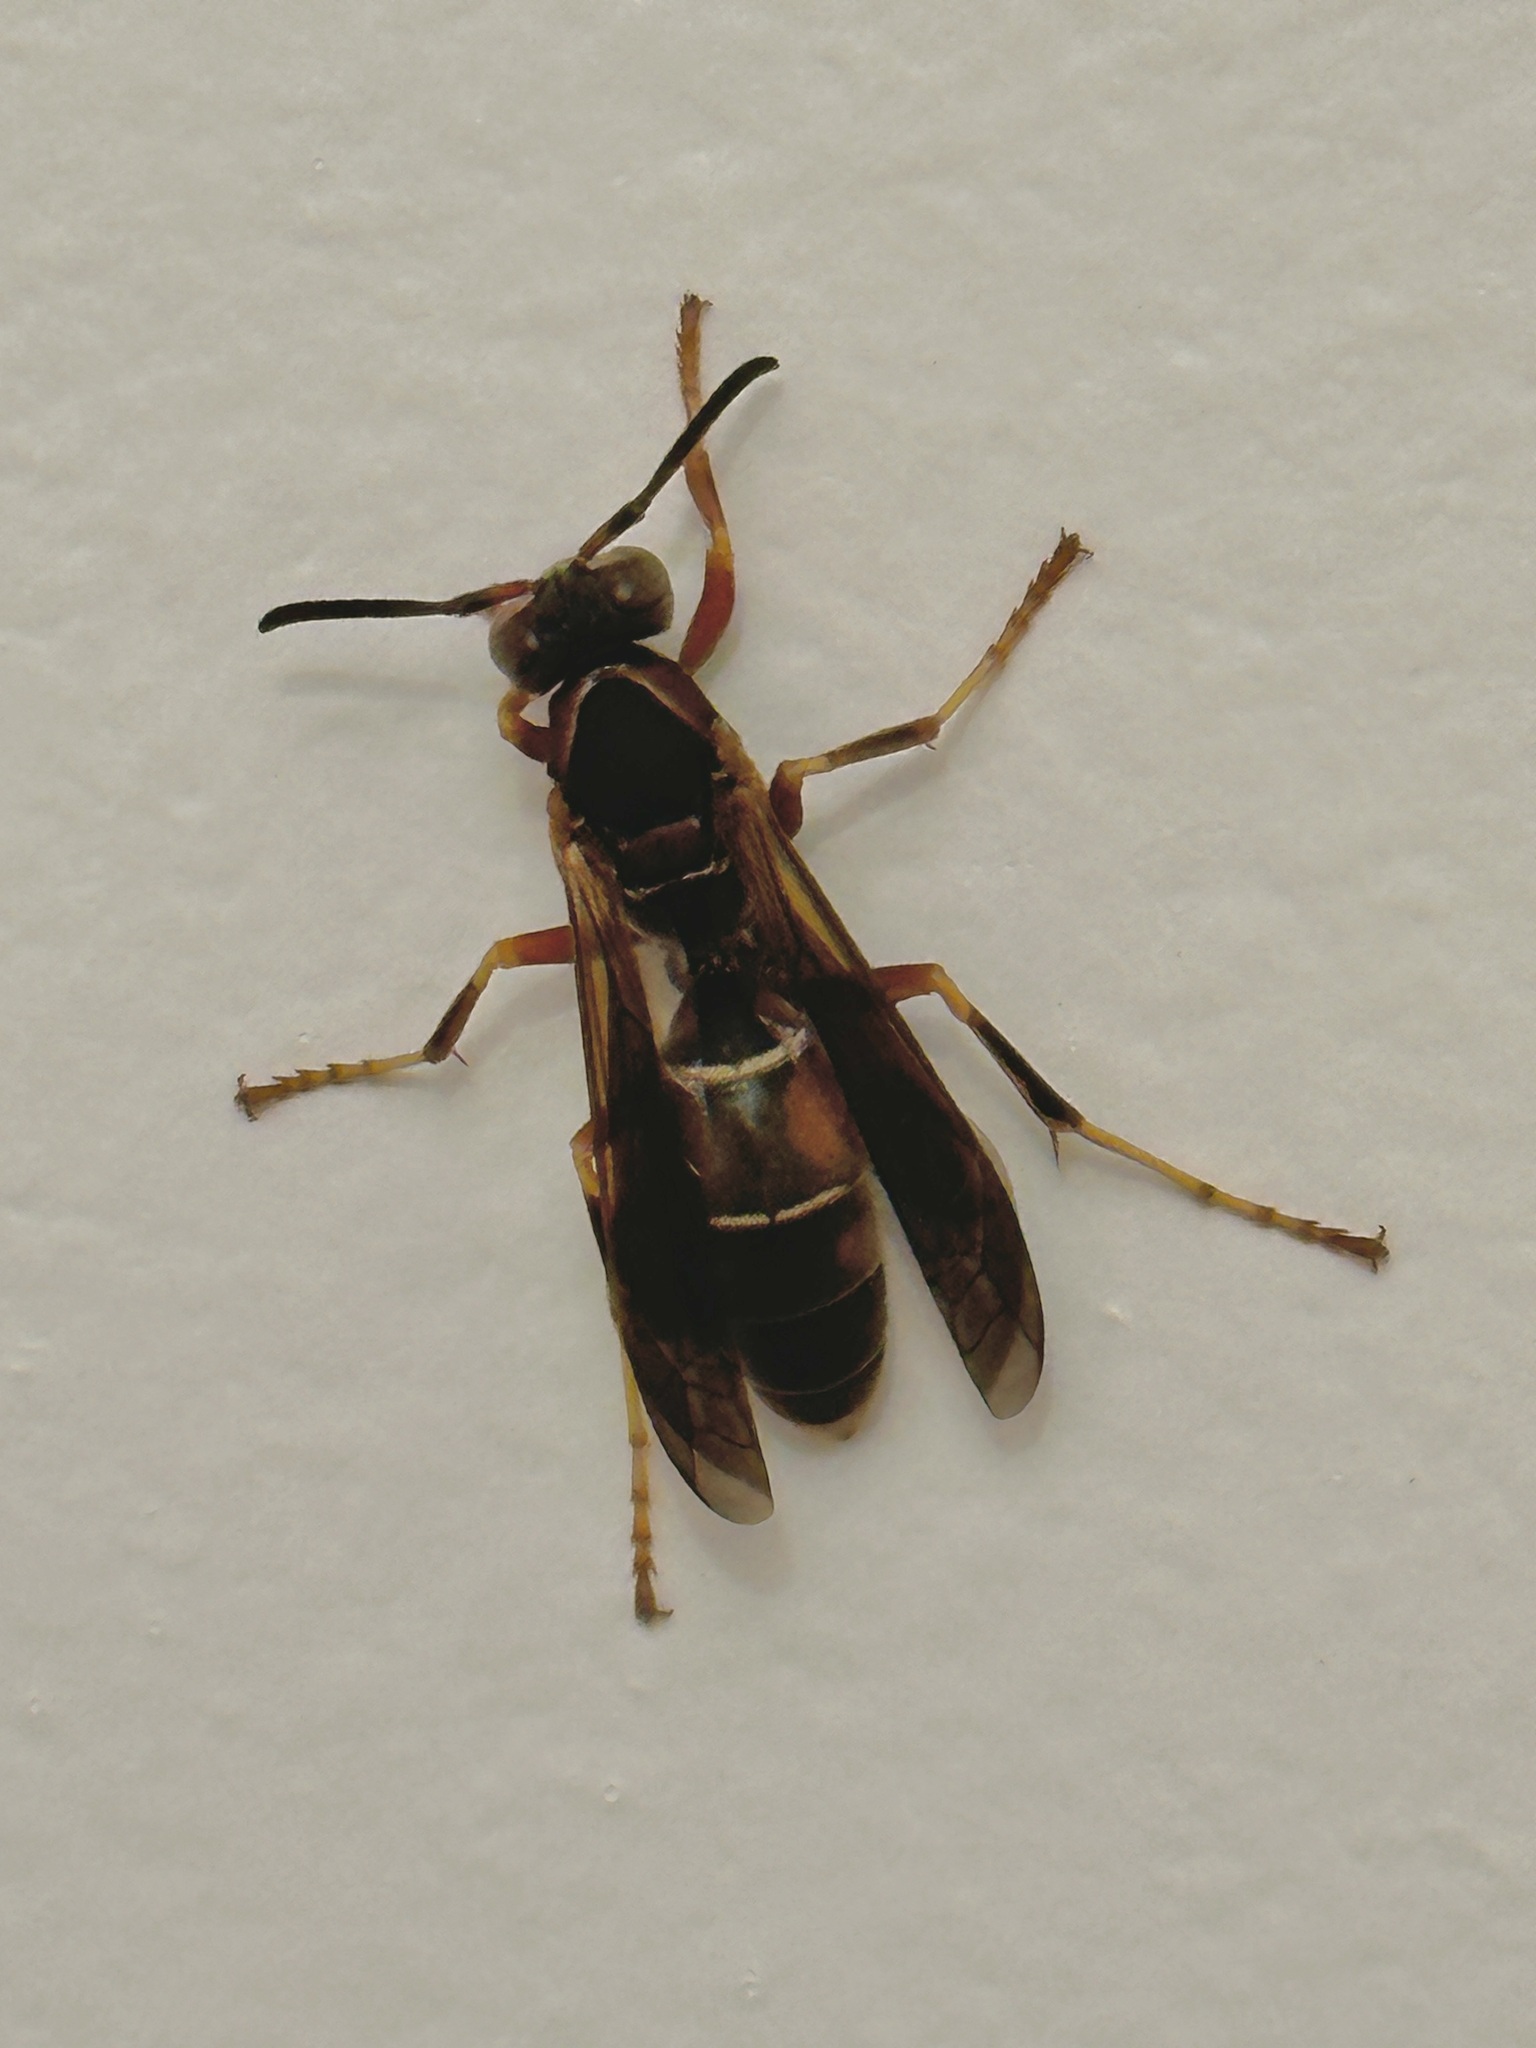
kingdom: Animalia
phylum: Arthropoda
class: Insecta
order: Hymenoptera
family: Eumenidae
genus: Polistes
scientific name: Polistes fuscatus
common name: Dark paper wasp
